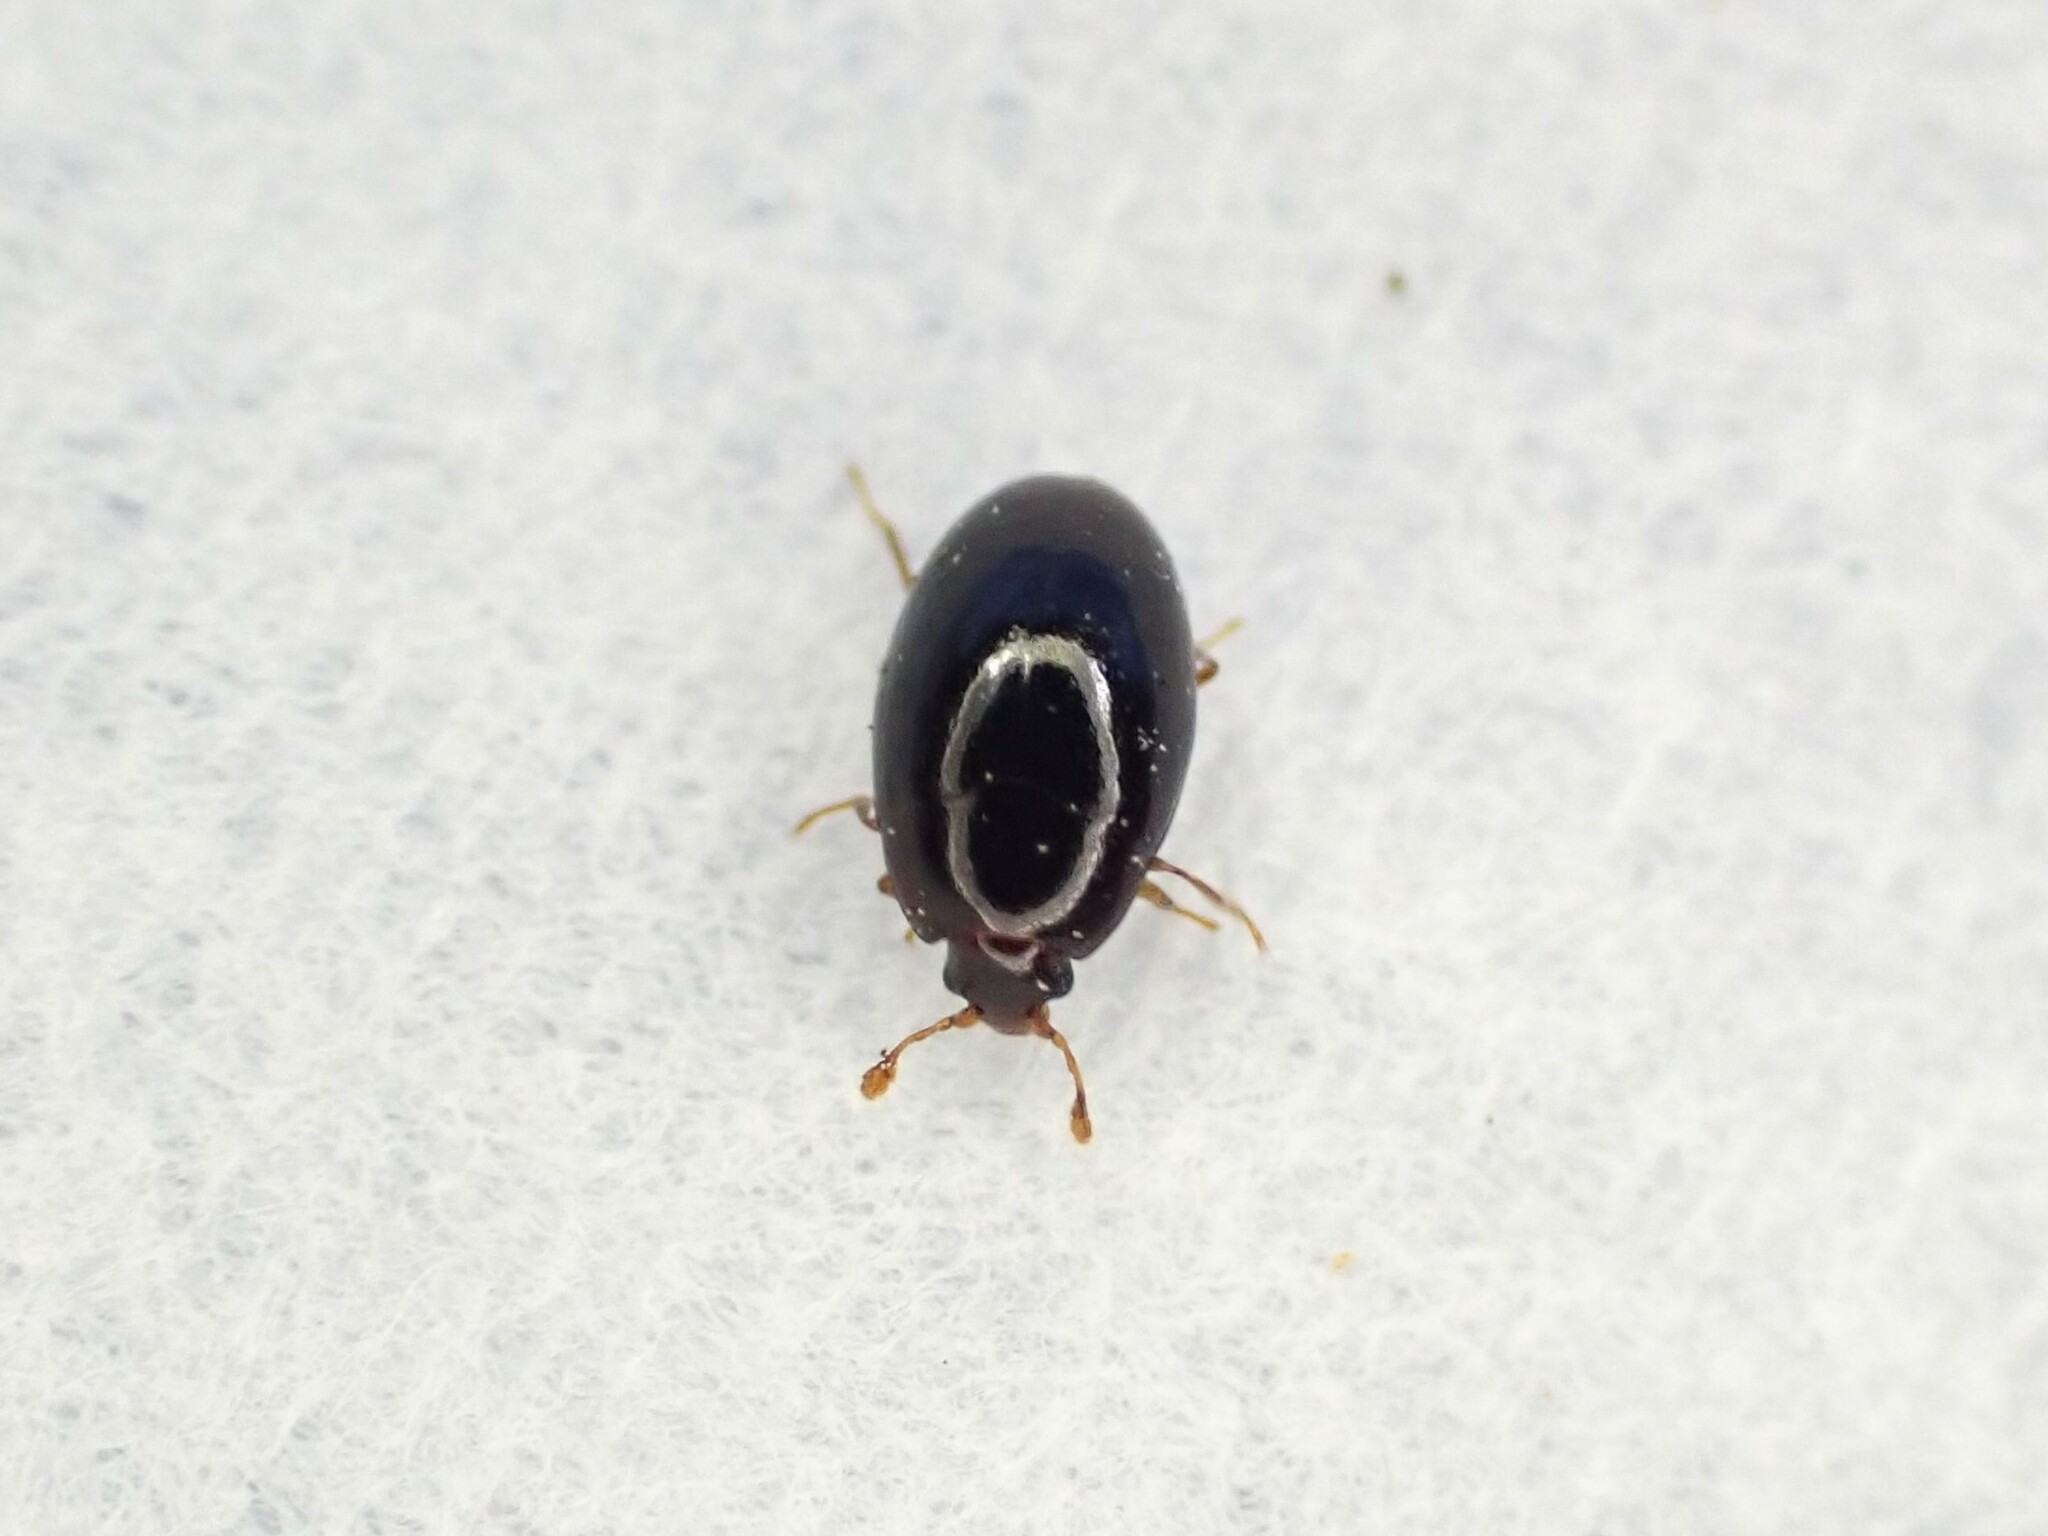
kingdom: Animalia
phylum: Arthropoda
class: Insecta
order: Coleoptera
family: Cerylonidae
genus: Hypodacnella
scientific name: Hypodacnella
